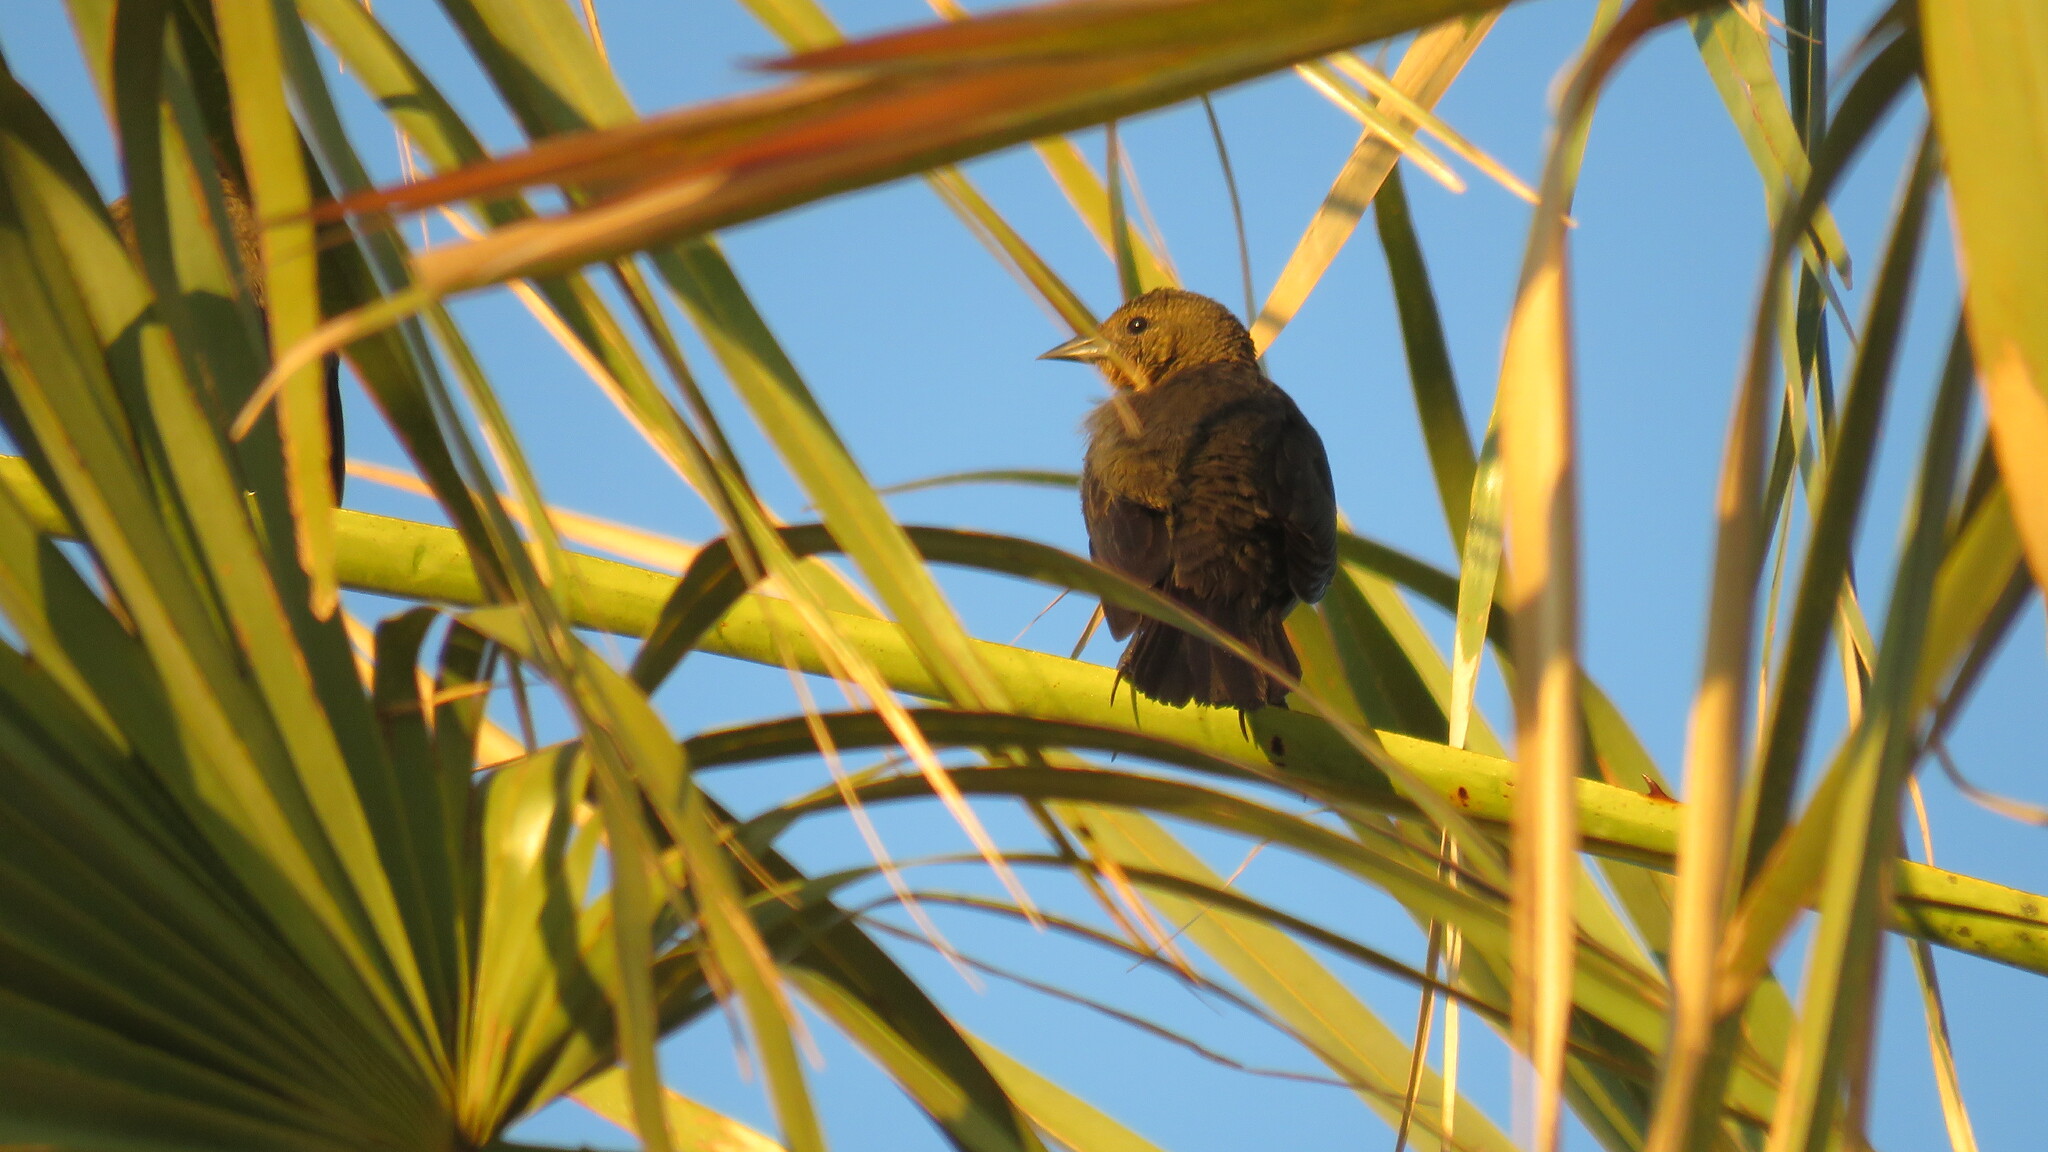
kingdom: Animalia
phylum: Chordata
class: Aves
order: Passeriformes
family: Icteridae
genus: Chrysomus
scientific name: Chrysomus ruficapillus
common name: Chestnut-capped blackbird
